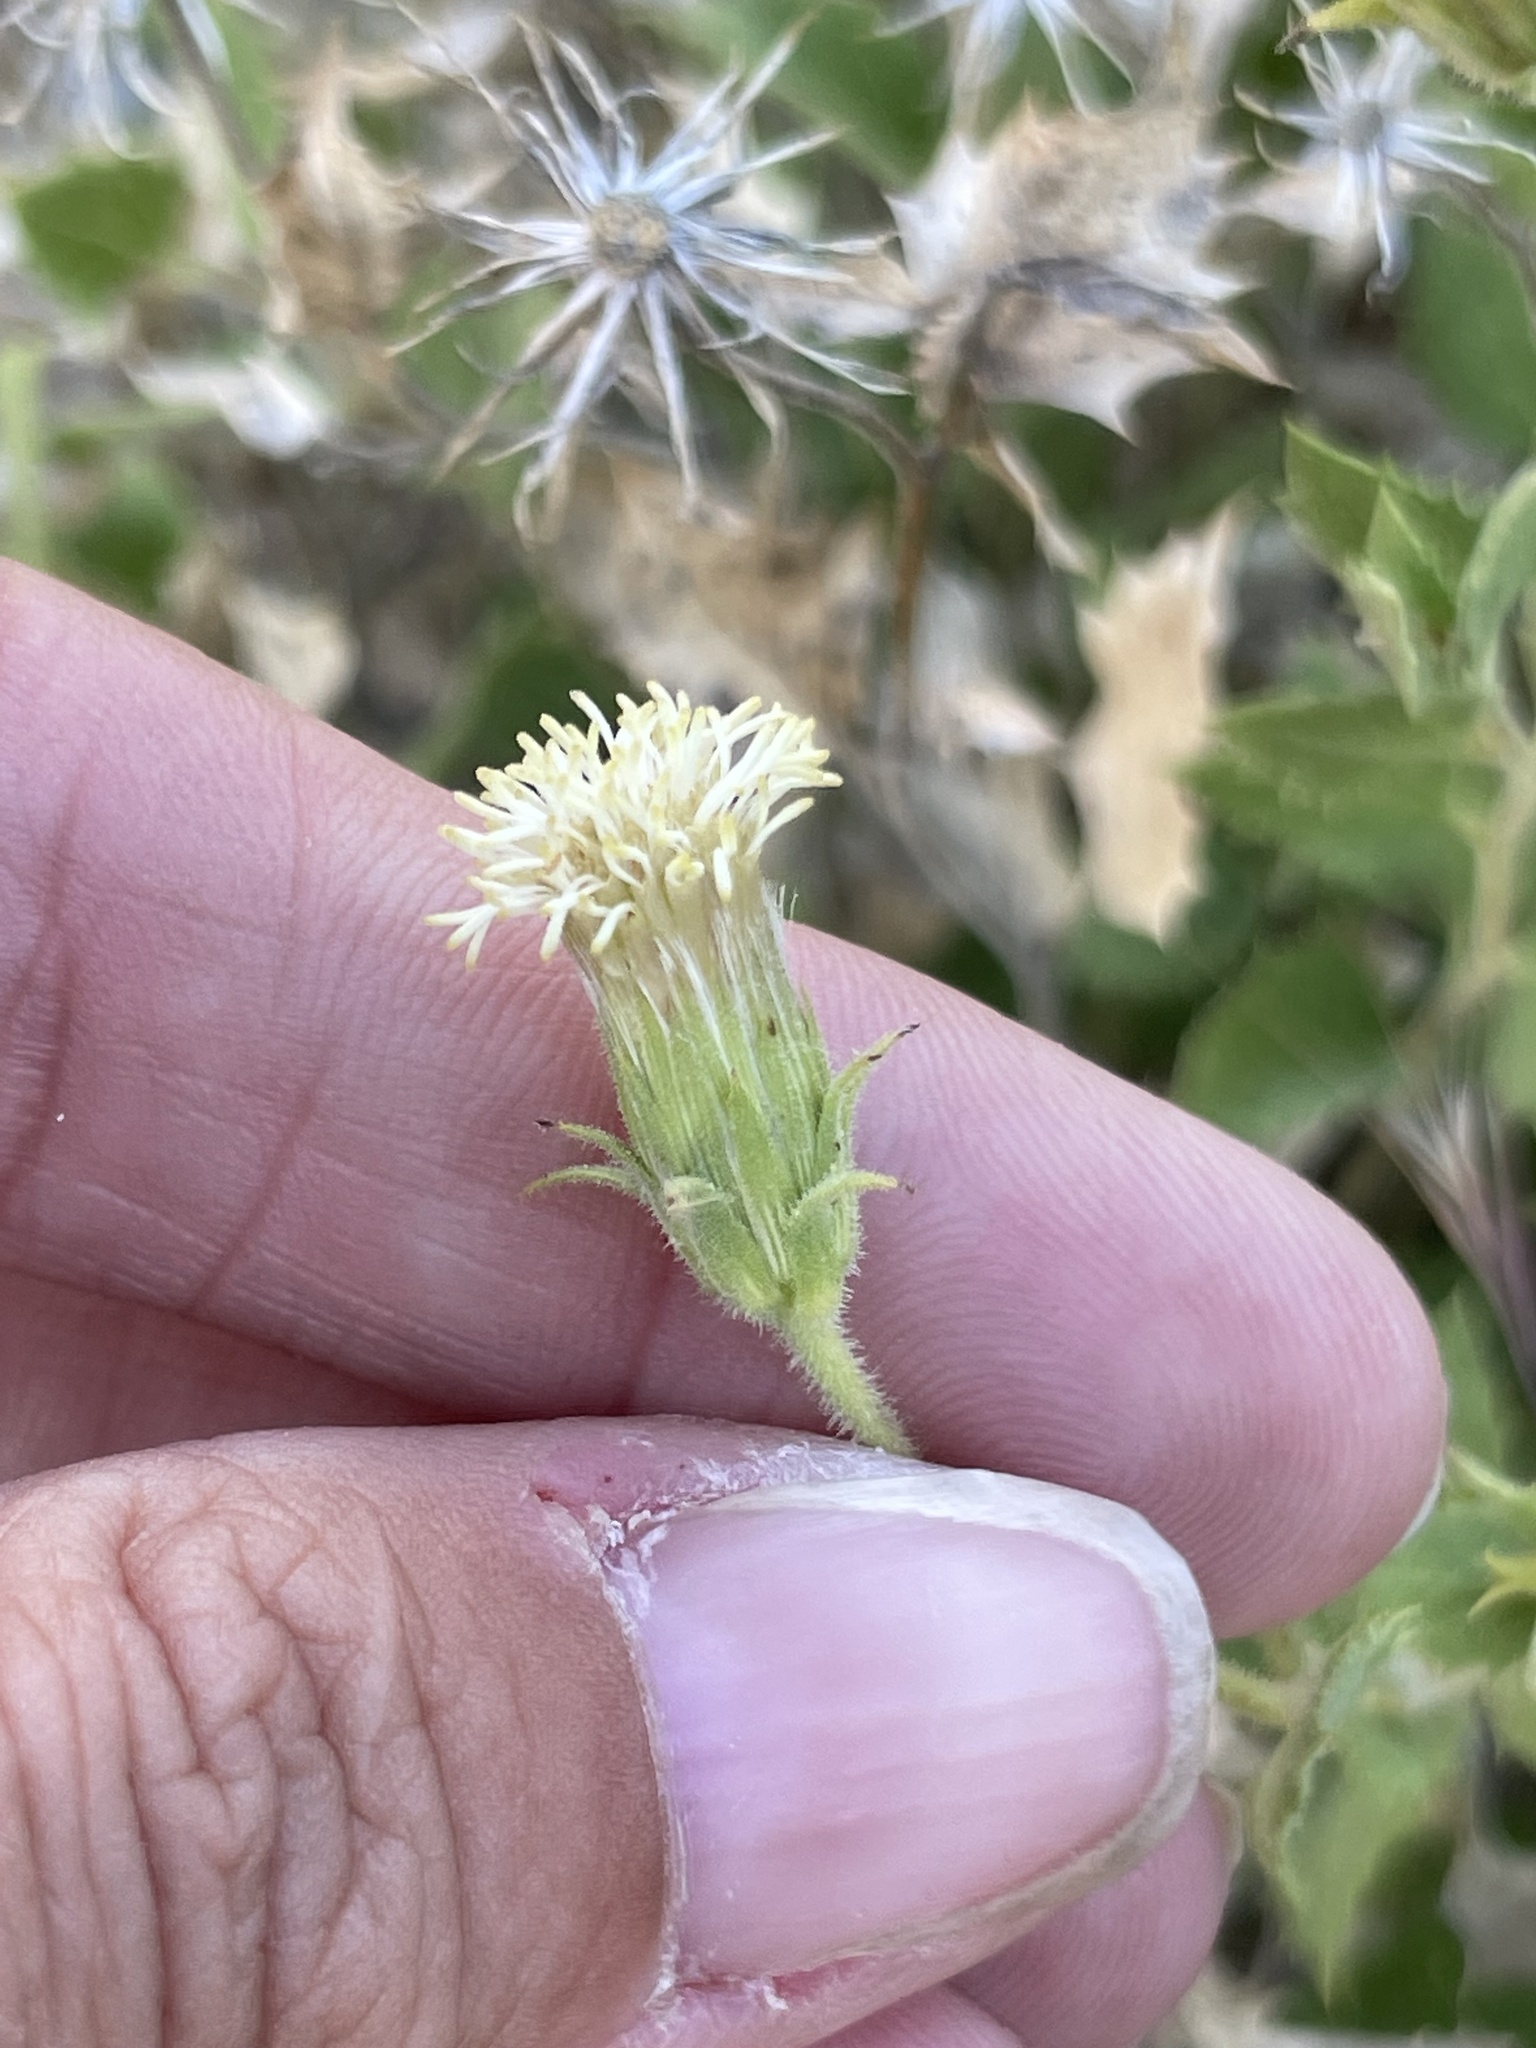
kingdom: Plantae
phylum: Tracheophyta
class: Magnoliopsida
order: Asterales
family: Asteraceae
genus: Brickellia
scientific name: Brickellia atractyloides
